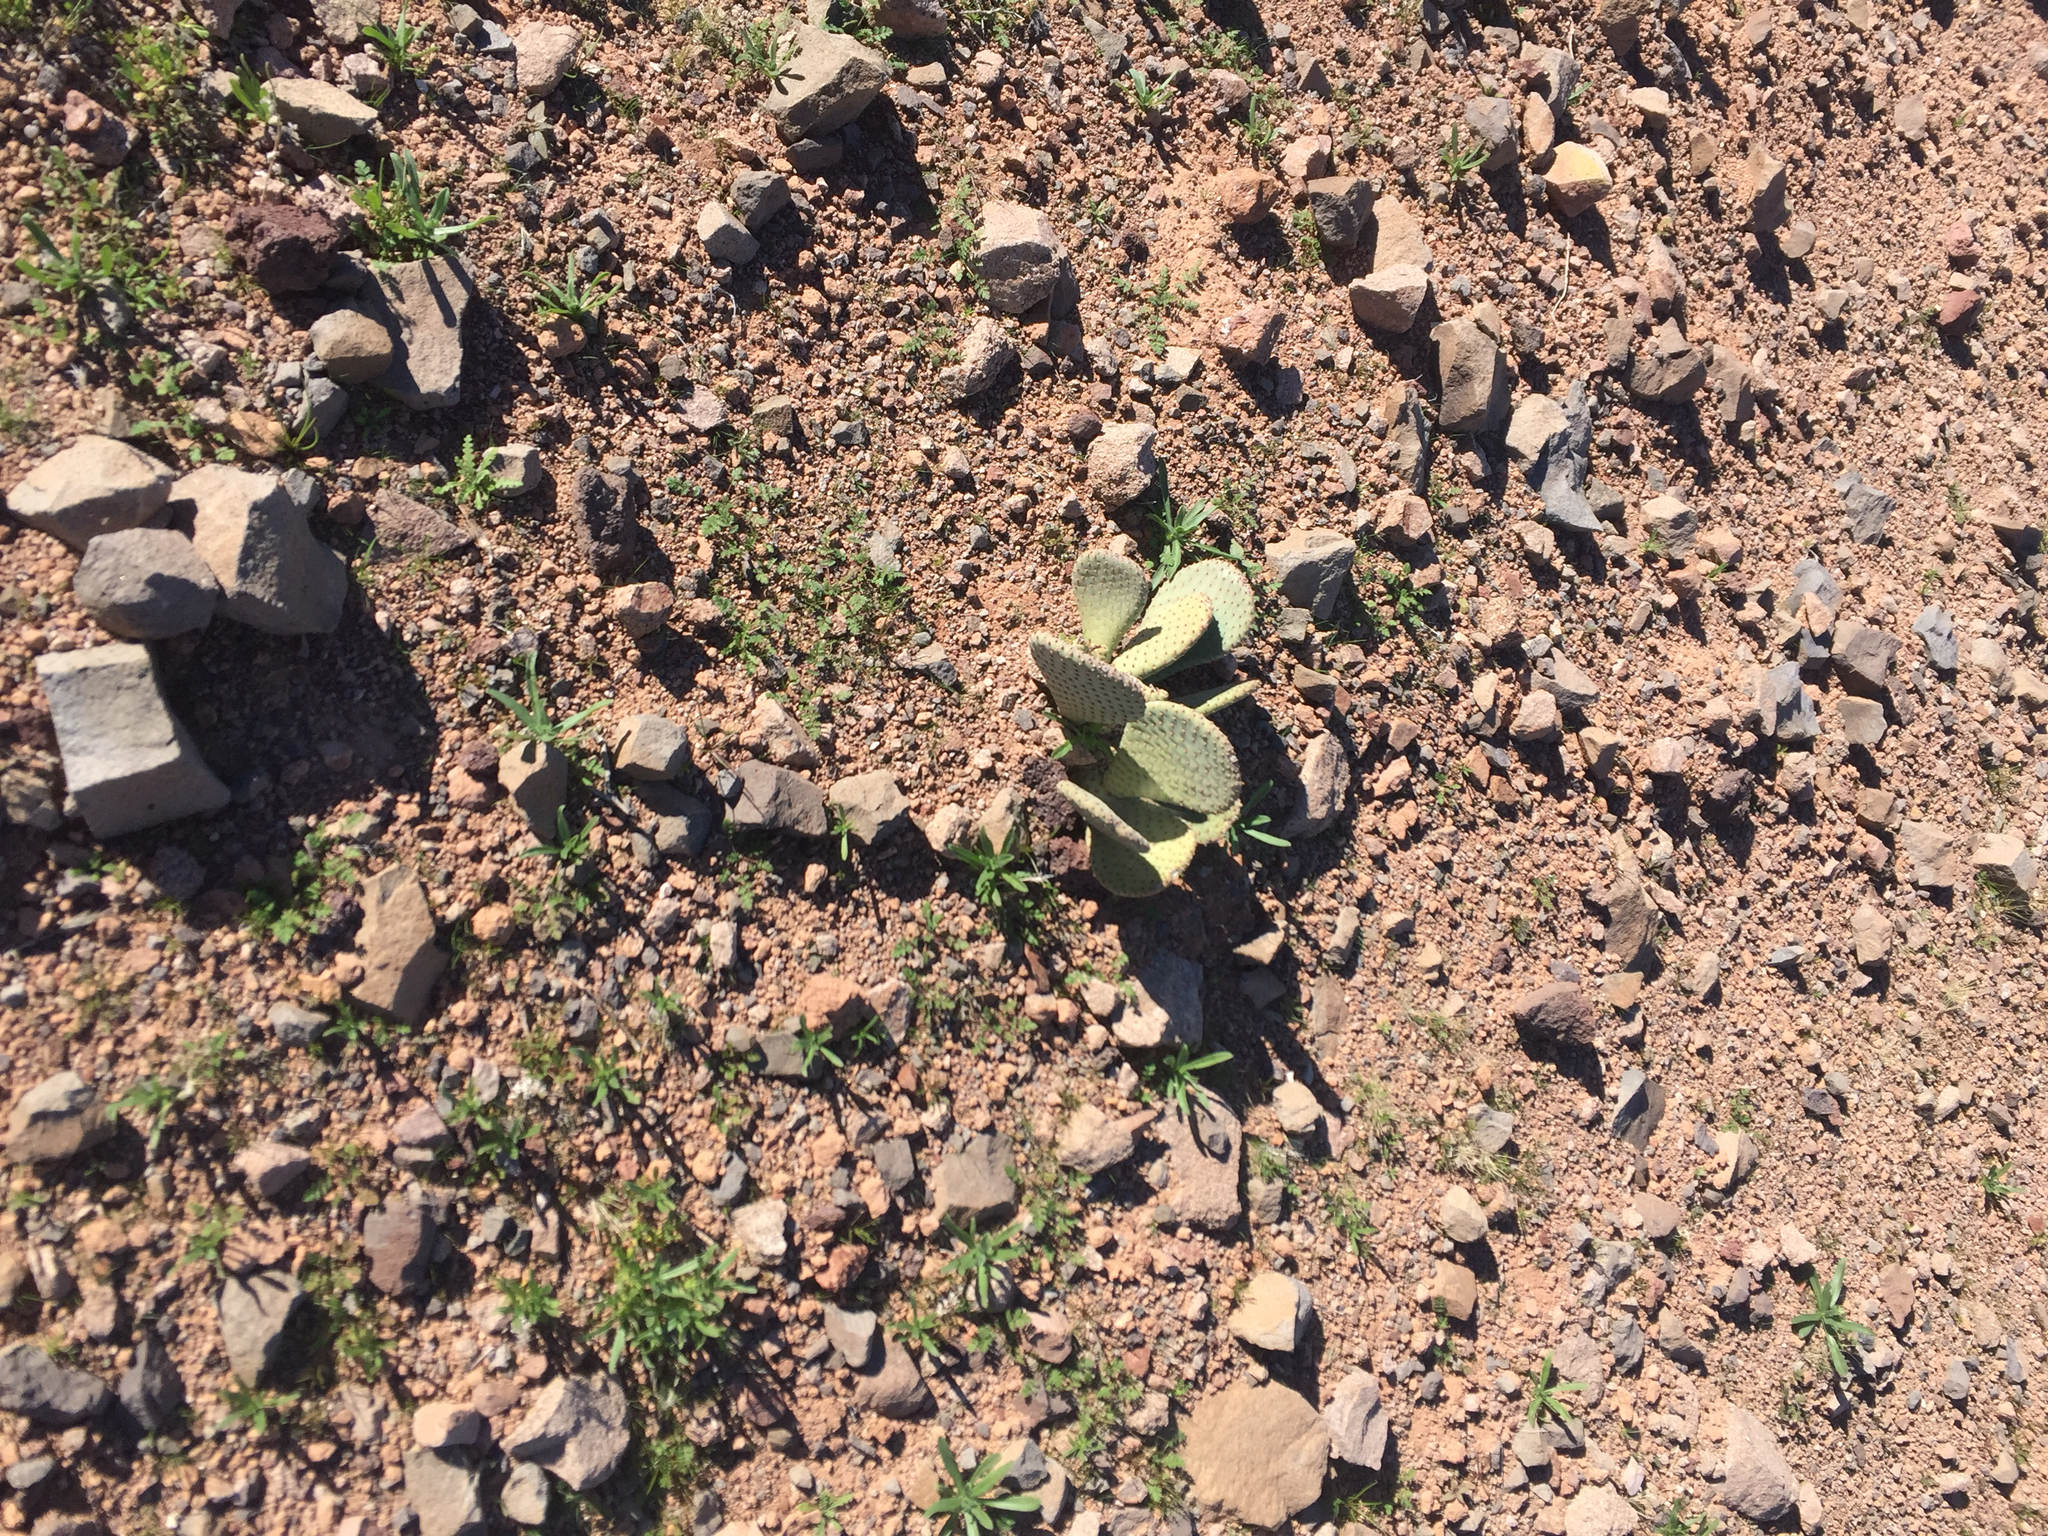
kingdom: Plantae
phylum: Tracheophyta
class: Magnoliopsida
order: Caryophyllales
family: Cactaceae
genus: Opuntia
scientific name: Opuntia basilaris
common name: Beavertail prickly-pear
